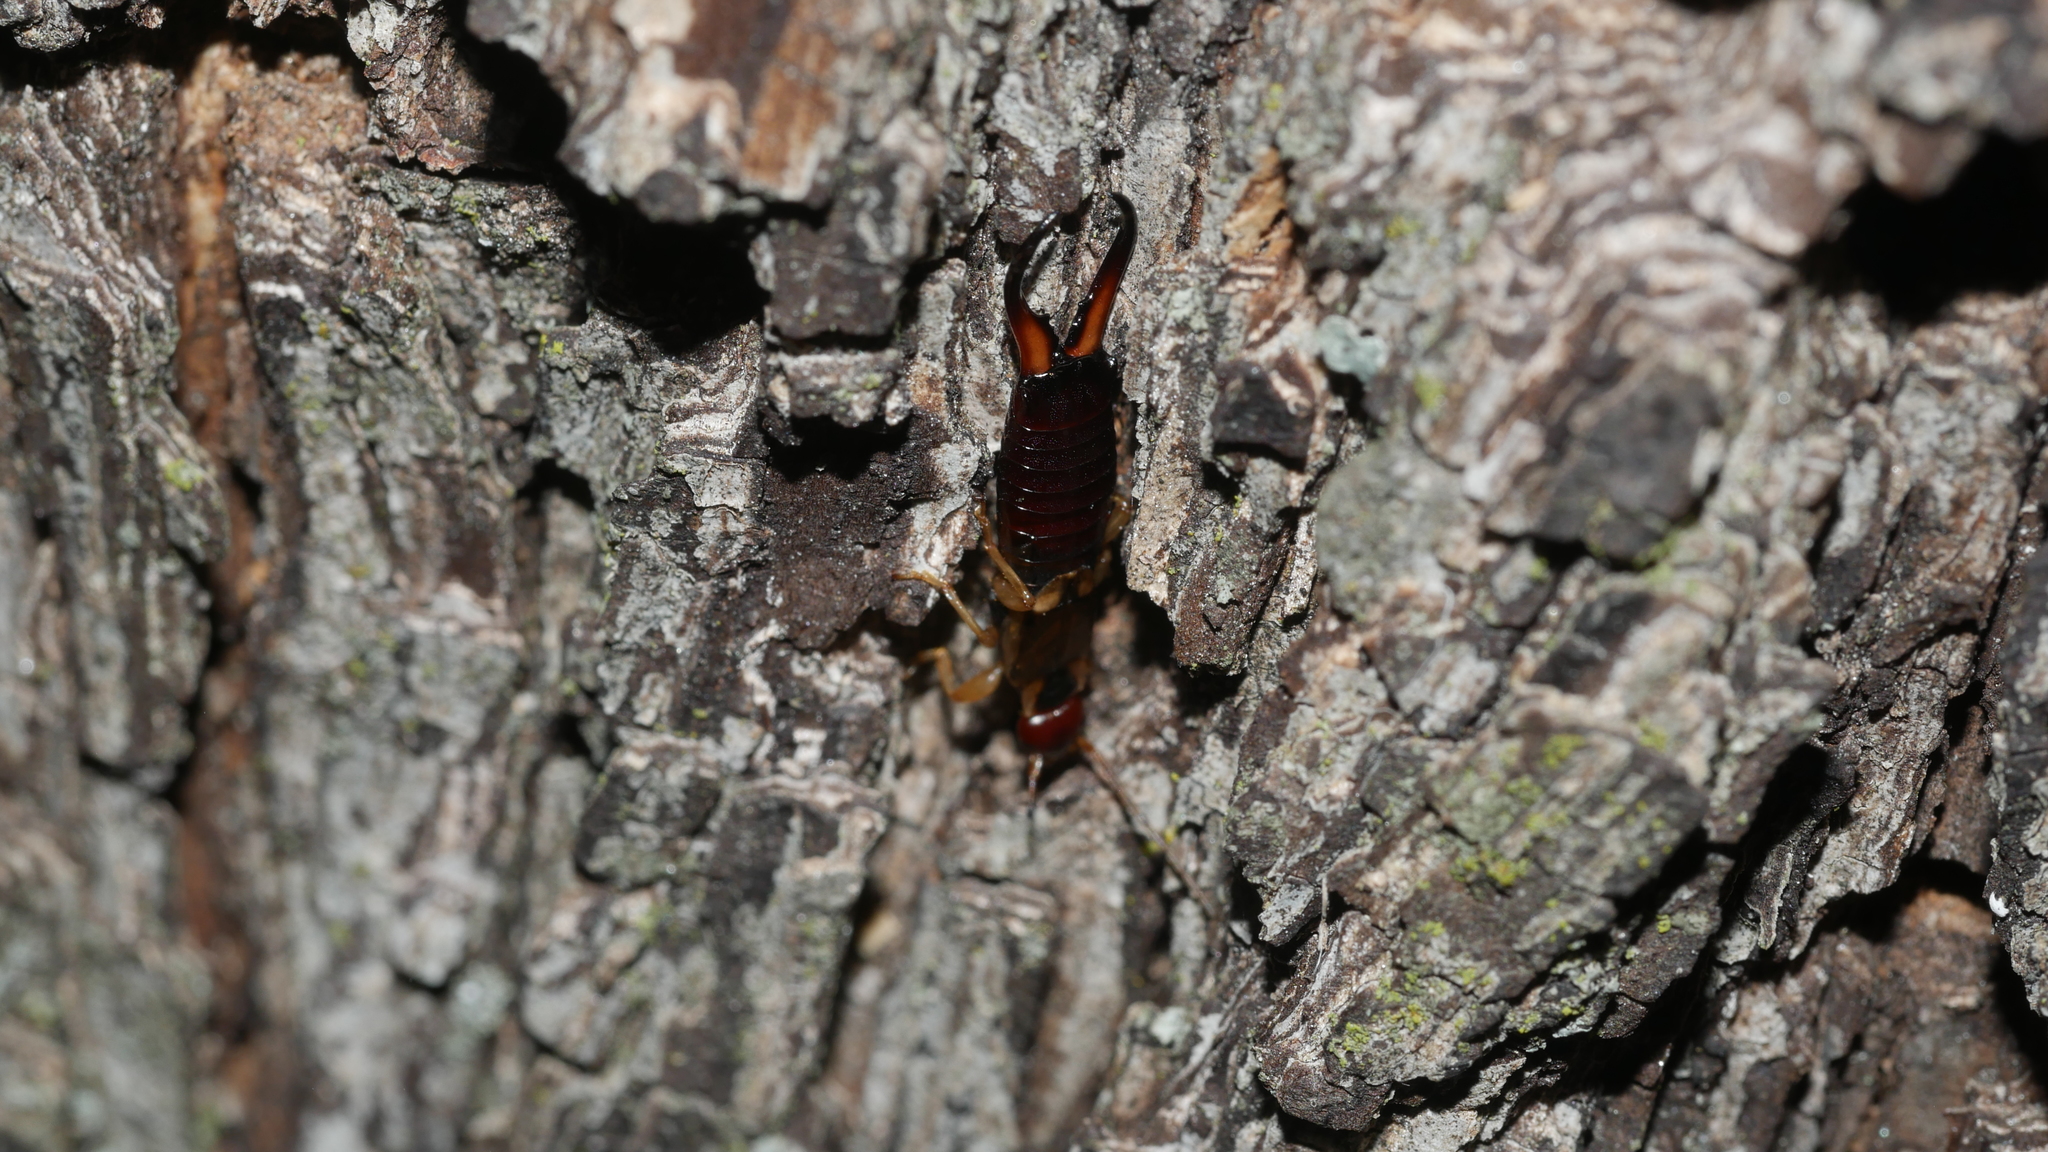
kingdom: Animalia
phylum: Arthropoda
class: Insecta
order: Dermaptera
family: Forficulidae
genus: Forficula
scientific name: Forficula
